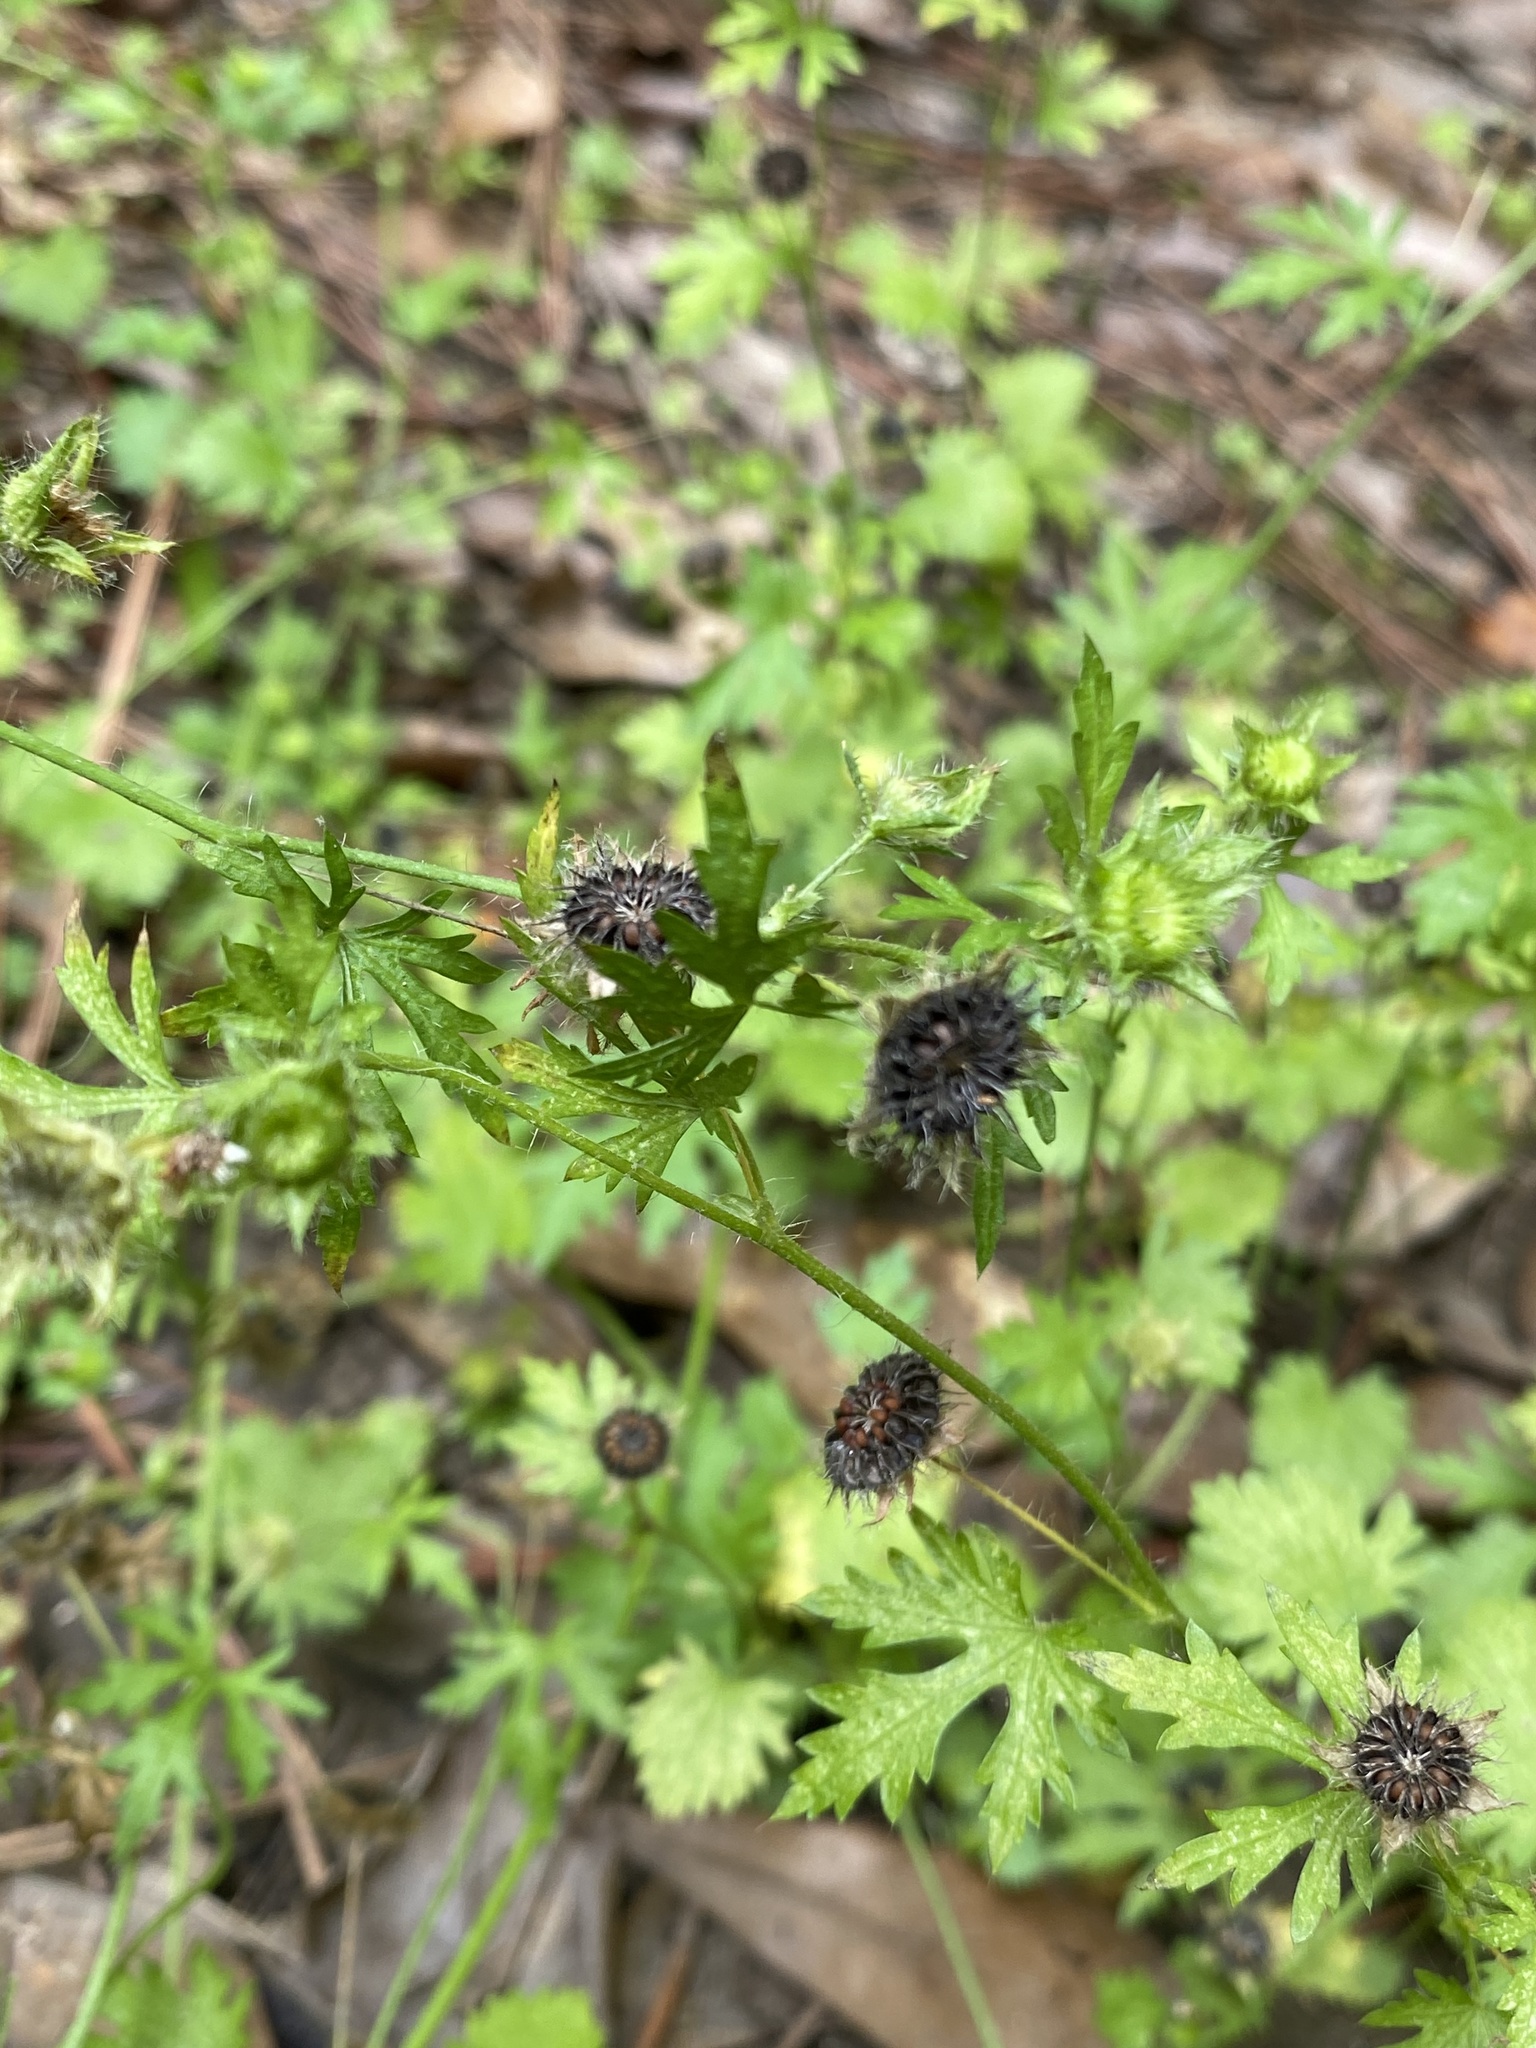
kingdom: Plantae
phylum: Tracheophyta
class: Magnoliopsida
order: Malvales
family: Malvaceae
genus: Modiola
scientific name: Modiola caroliniana
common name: Carolina bristlemallow
